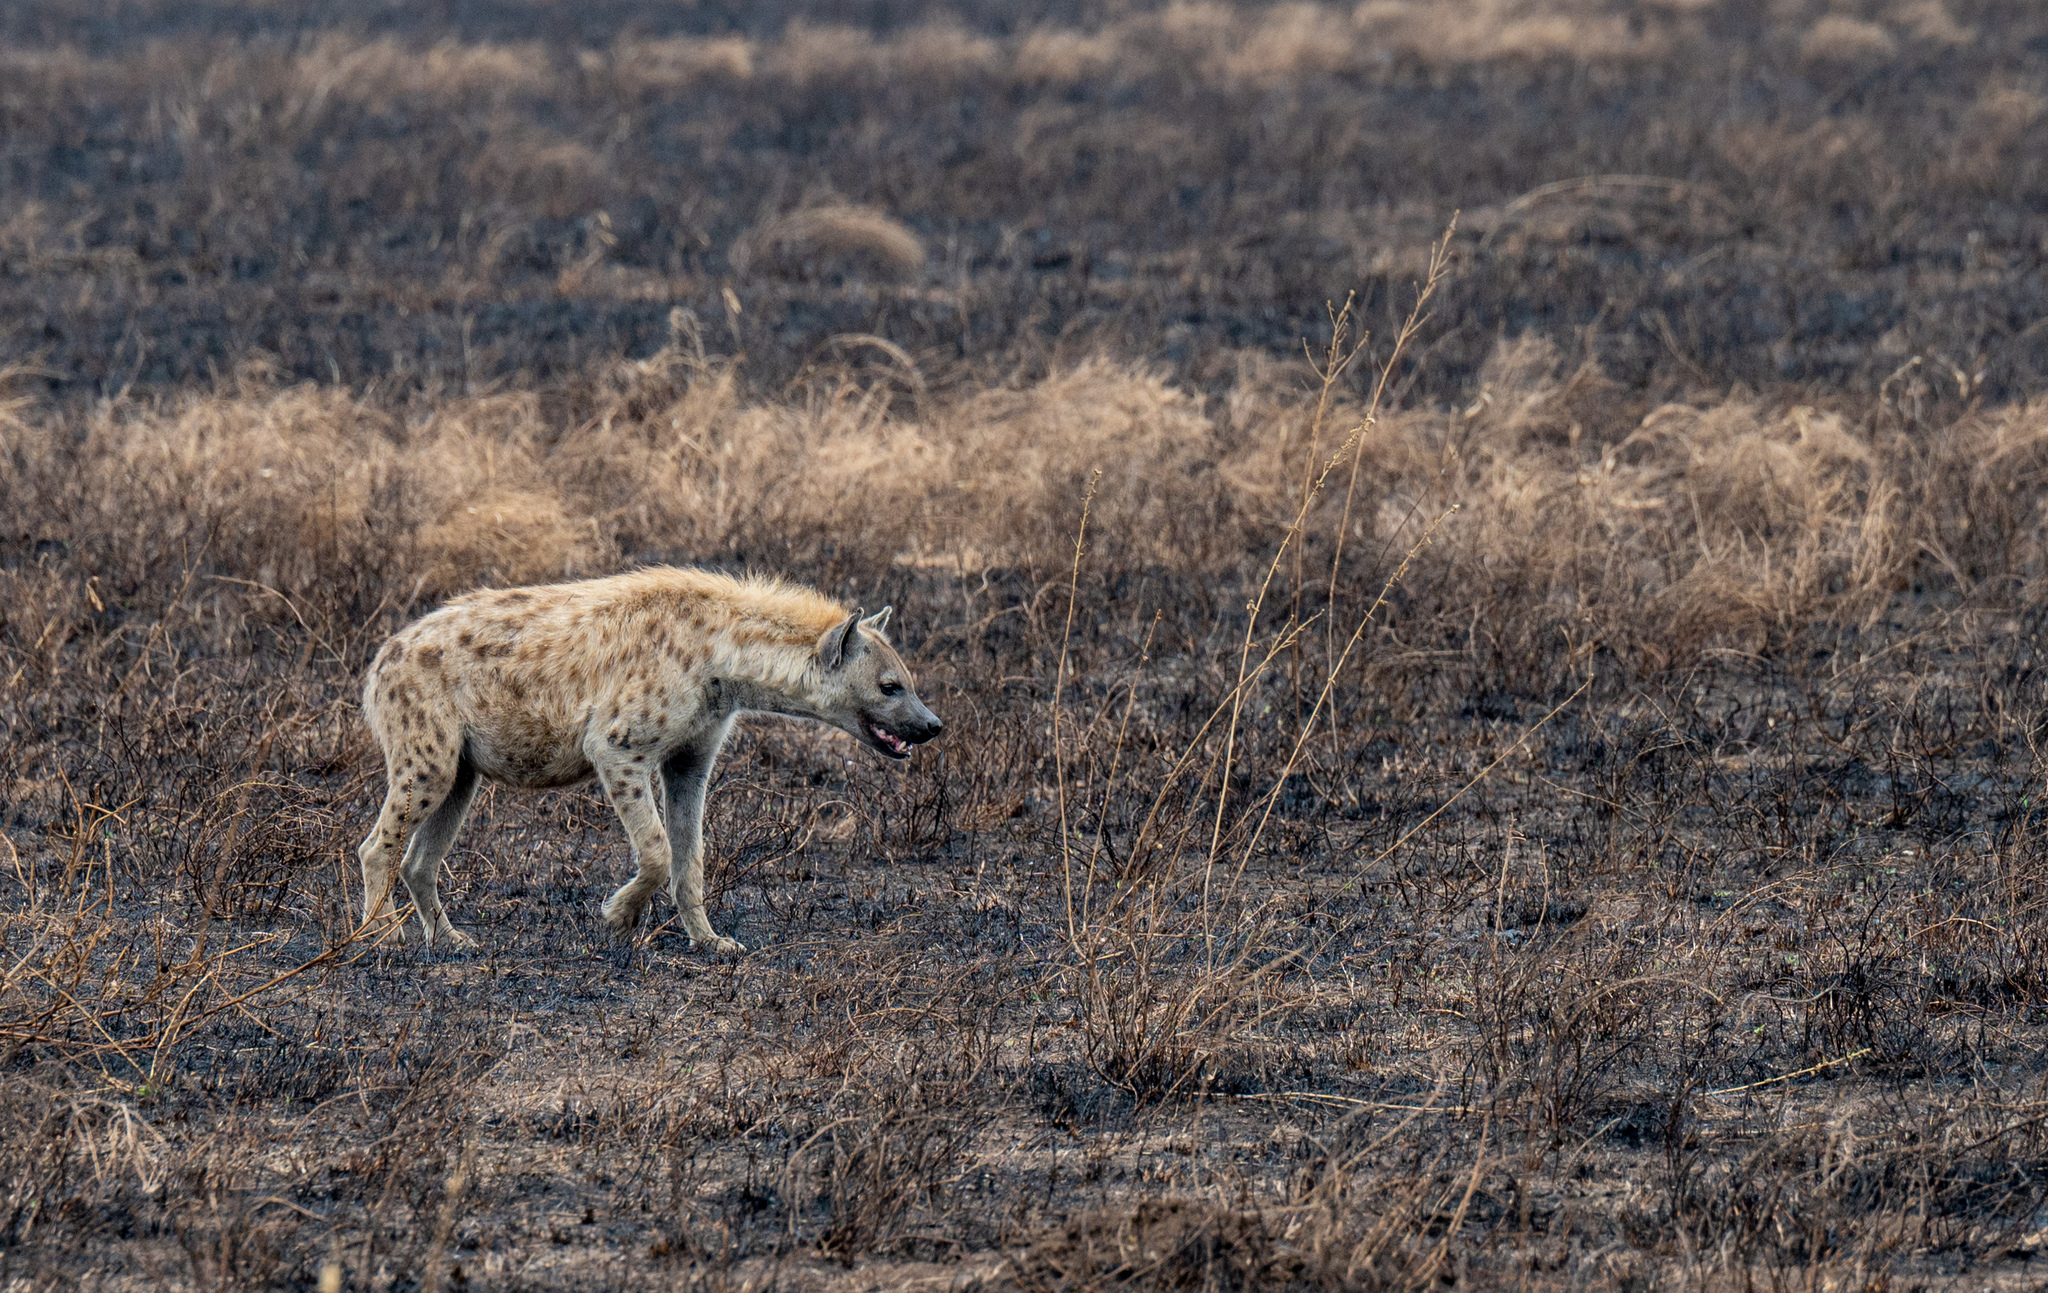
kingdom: Animalia
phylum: Chordata
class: Mammalia
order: Carnivora
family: Hyaenidae
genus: Crocuta
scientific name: Crocuta crocuta
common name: Spotted hyaena
